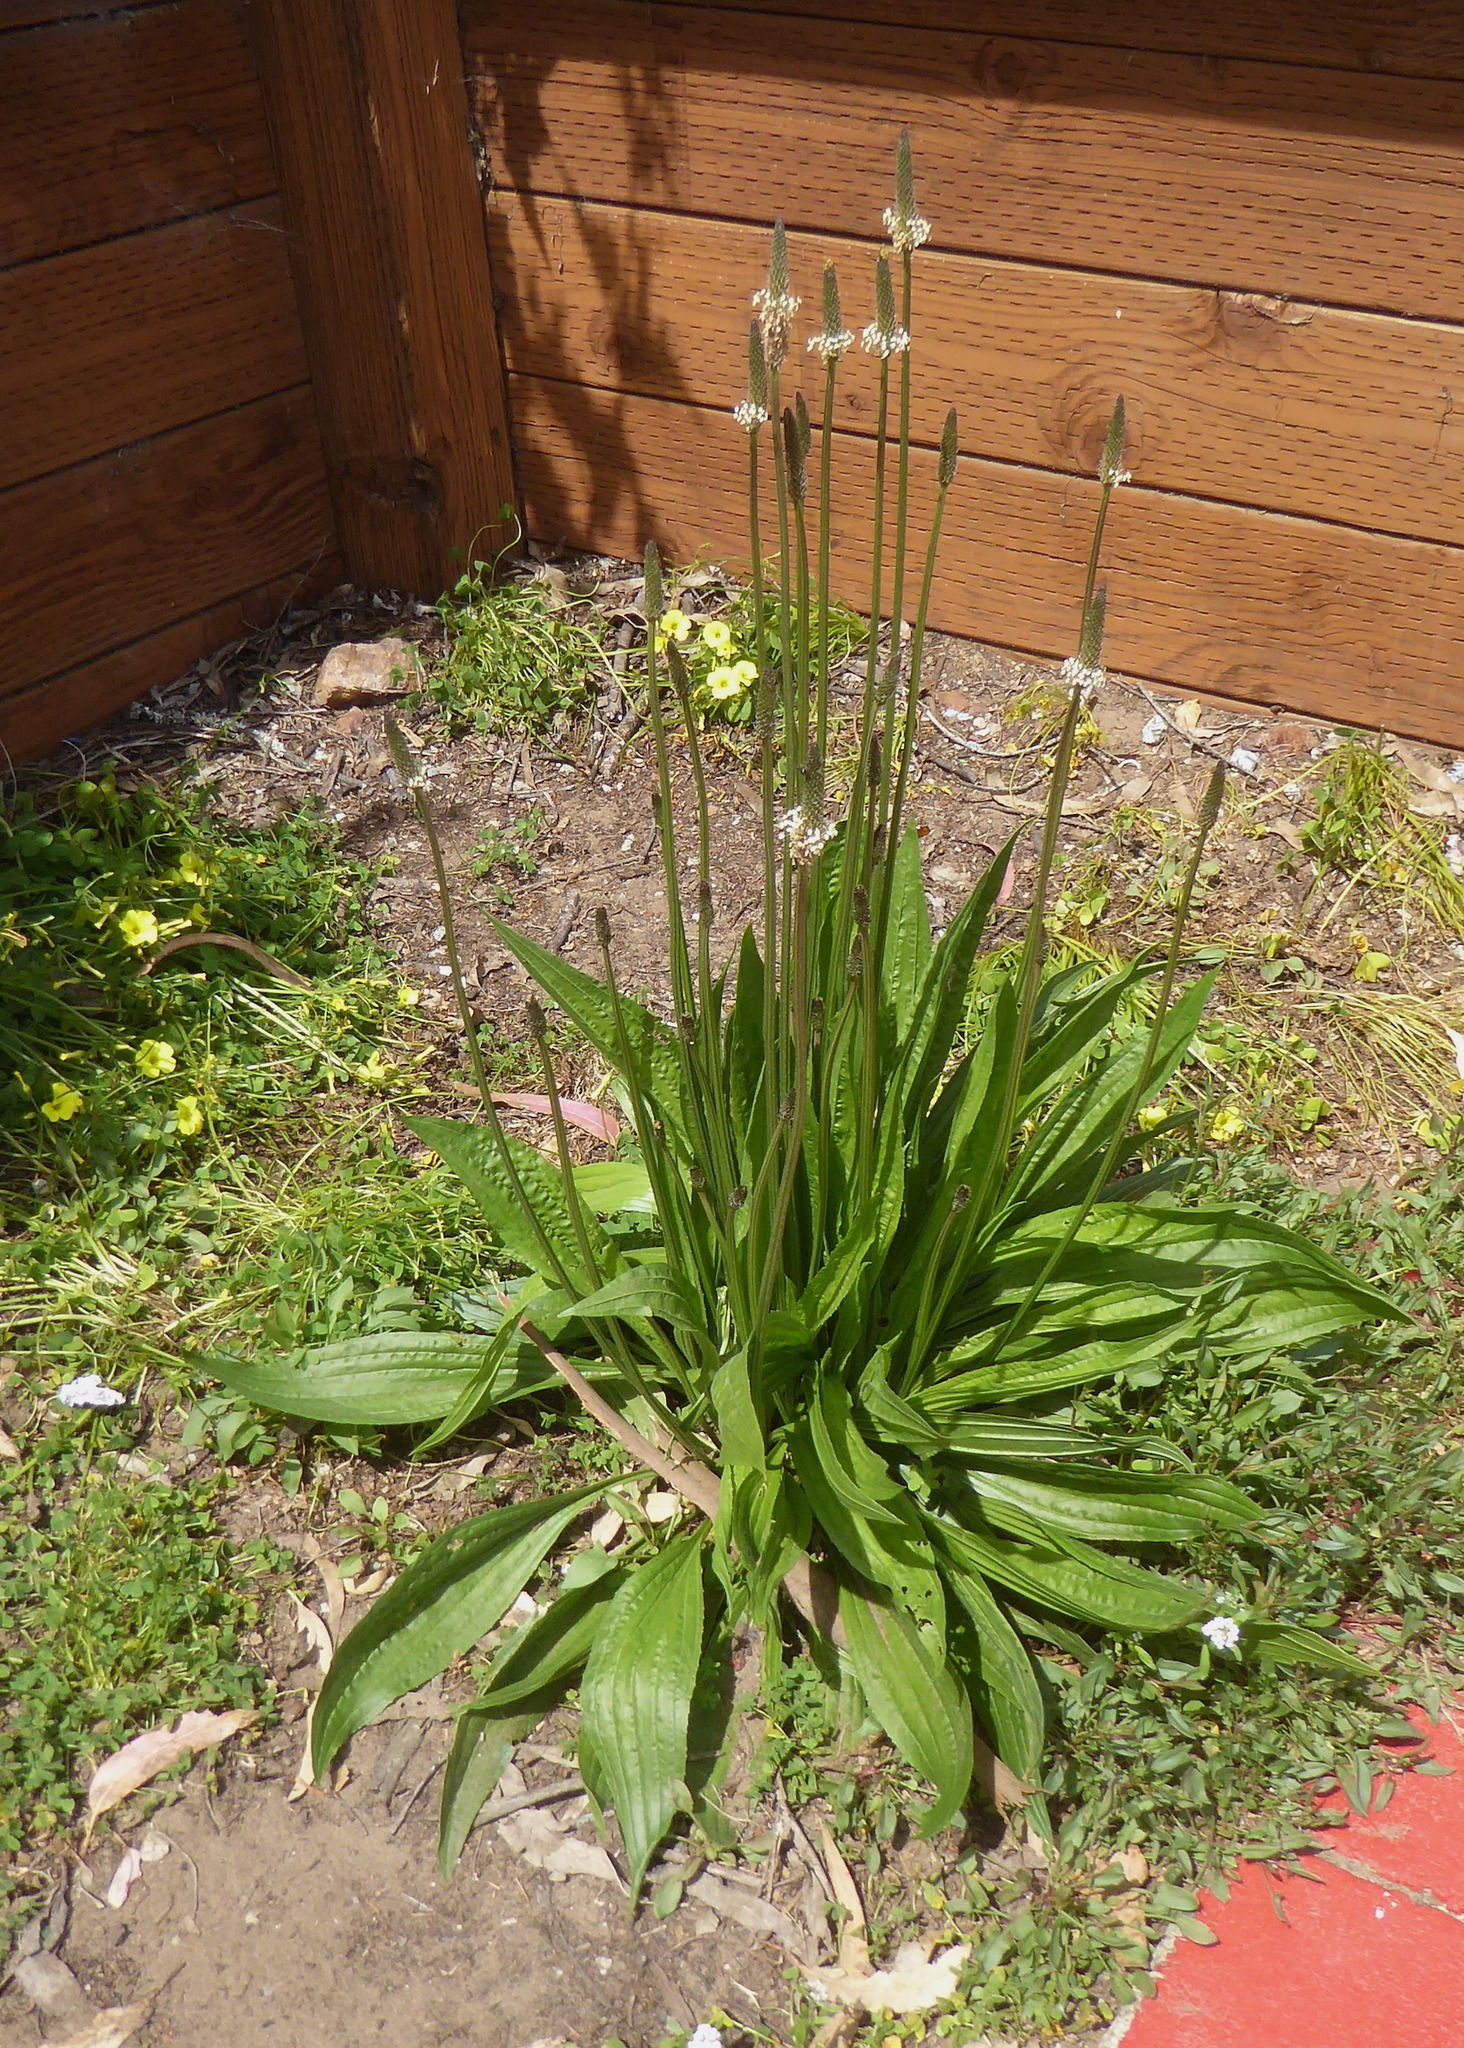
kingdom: Plantae
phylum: Tracheophyta
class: Magnoliopsida
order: Lamiales
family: Plantaginaceae
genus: Plantago
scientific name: Plantago lanceolata
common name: Ribwort plantain
